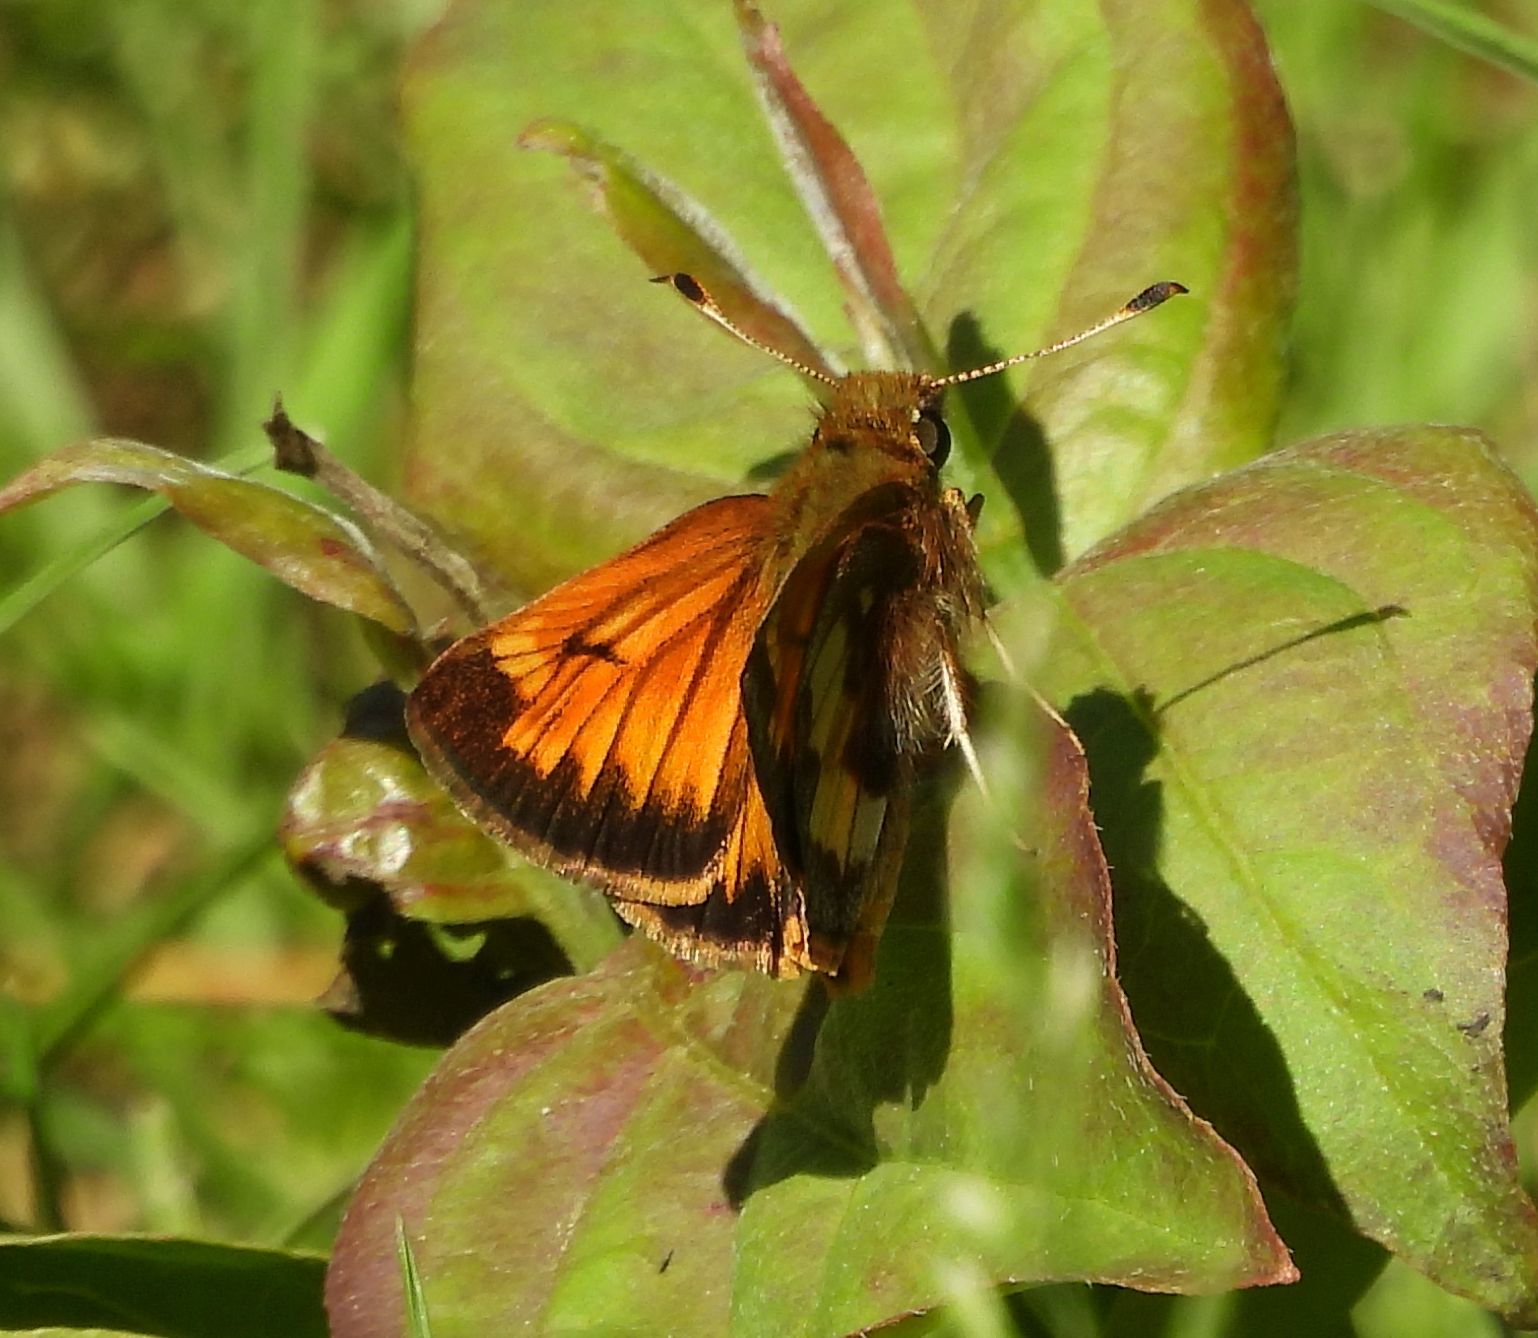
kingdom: Animalia
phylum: Arthropoda
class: Insecta
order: Lepidoptera
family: Hesperiidae
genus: Lon
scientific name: Lon hobomok
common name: Hobomok skipper
